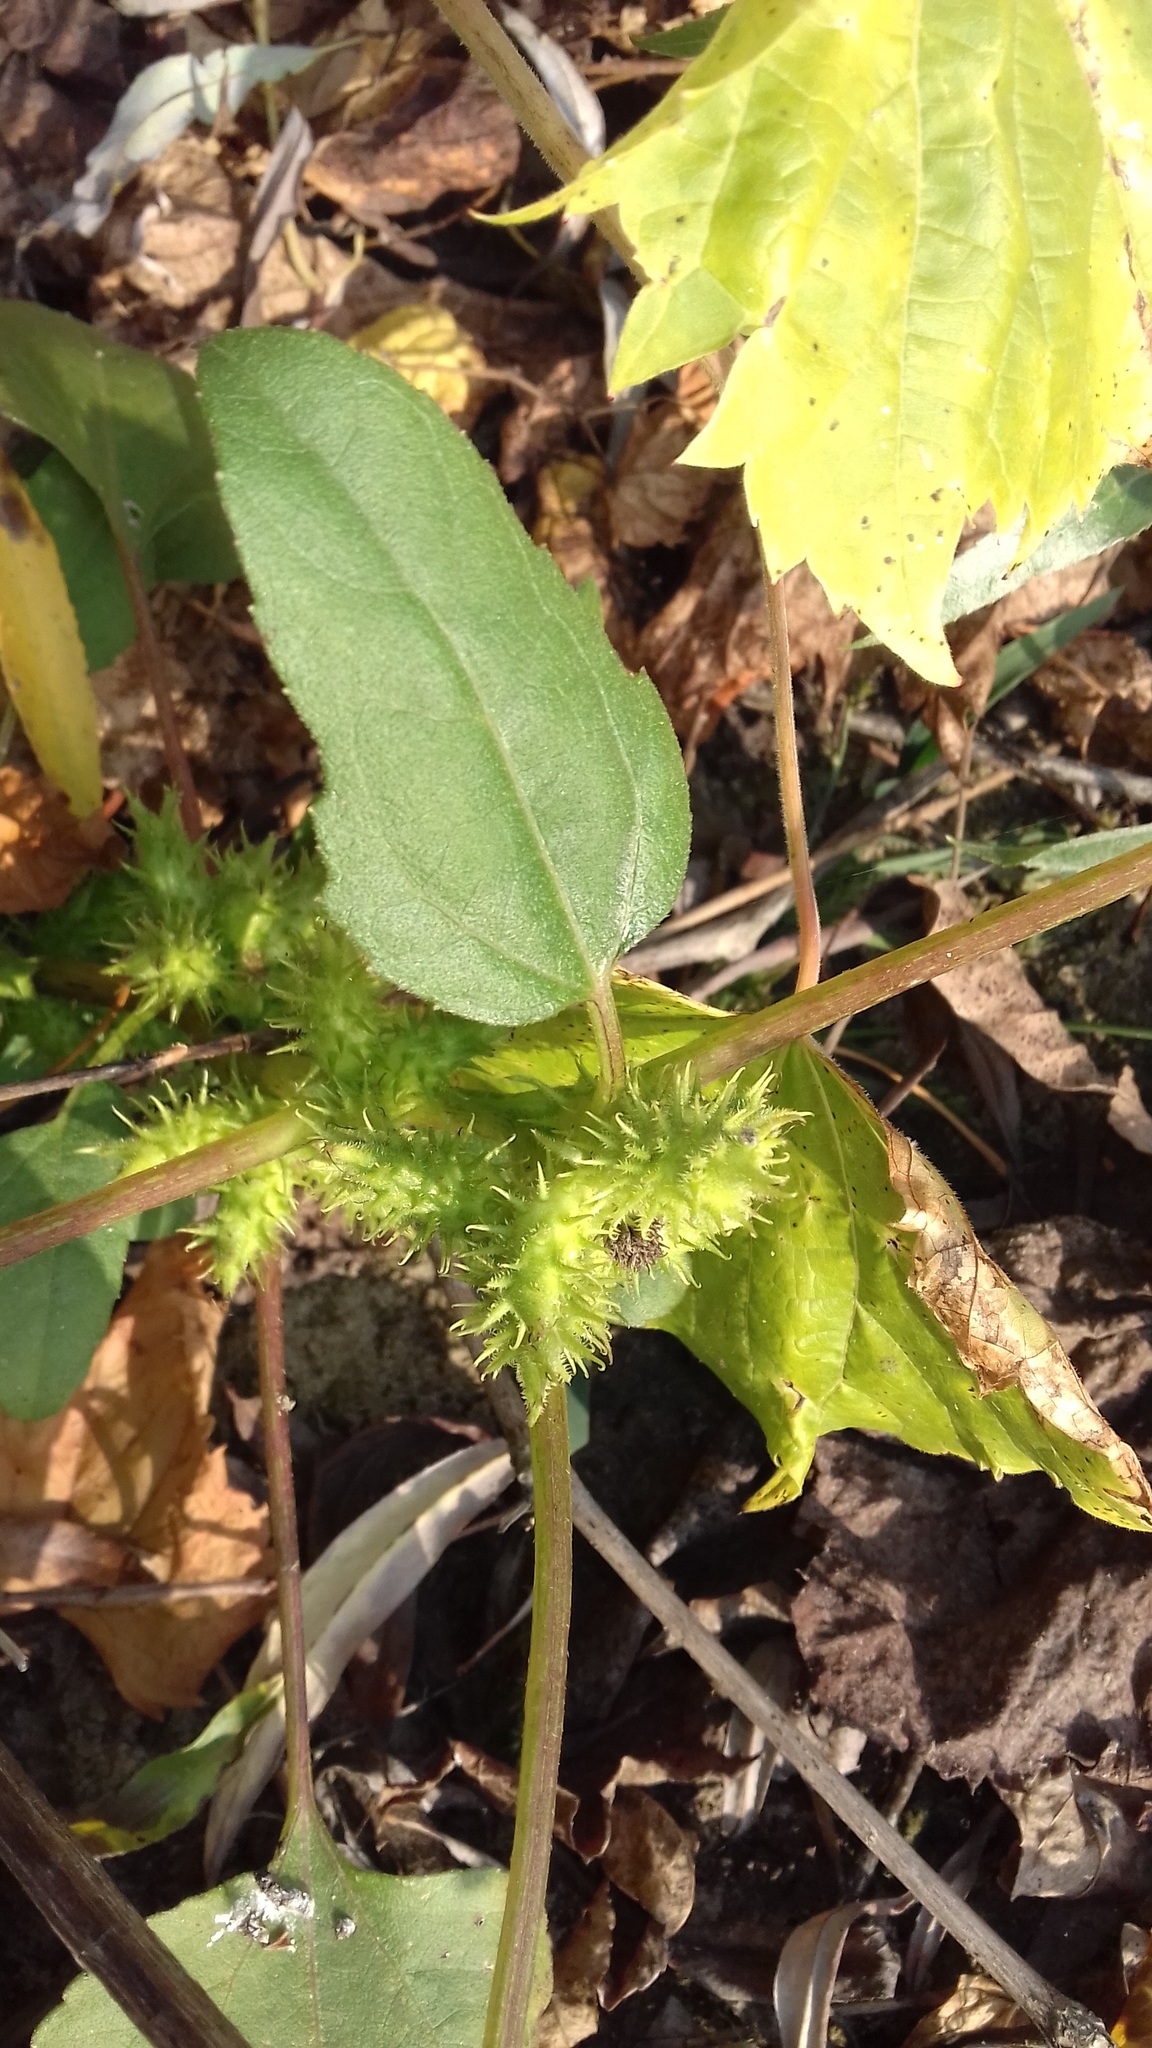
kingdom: Plantae
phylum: Tracheophyta
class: Magnoliopsida
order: Asterales
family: Asteraceae
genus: Xanthium
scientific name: Xanthium strumarium
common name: Rough cocklebur
